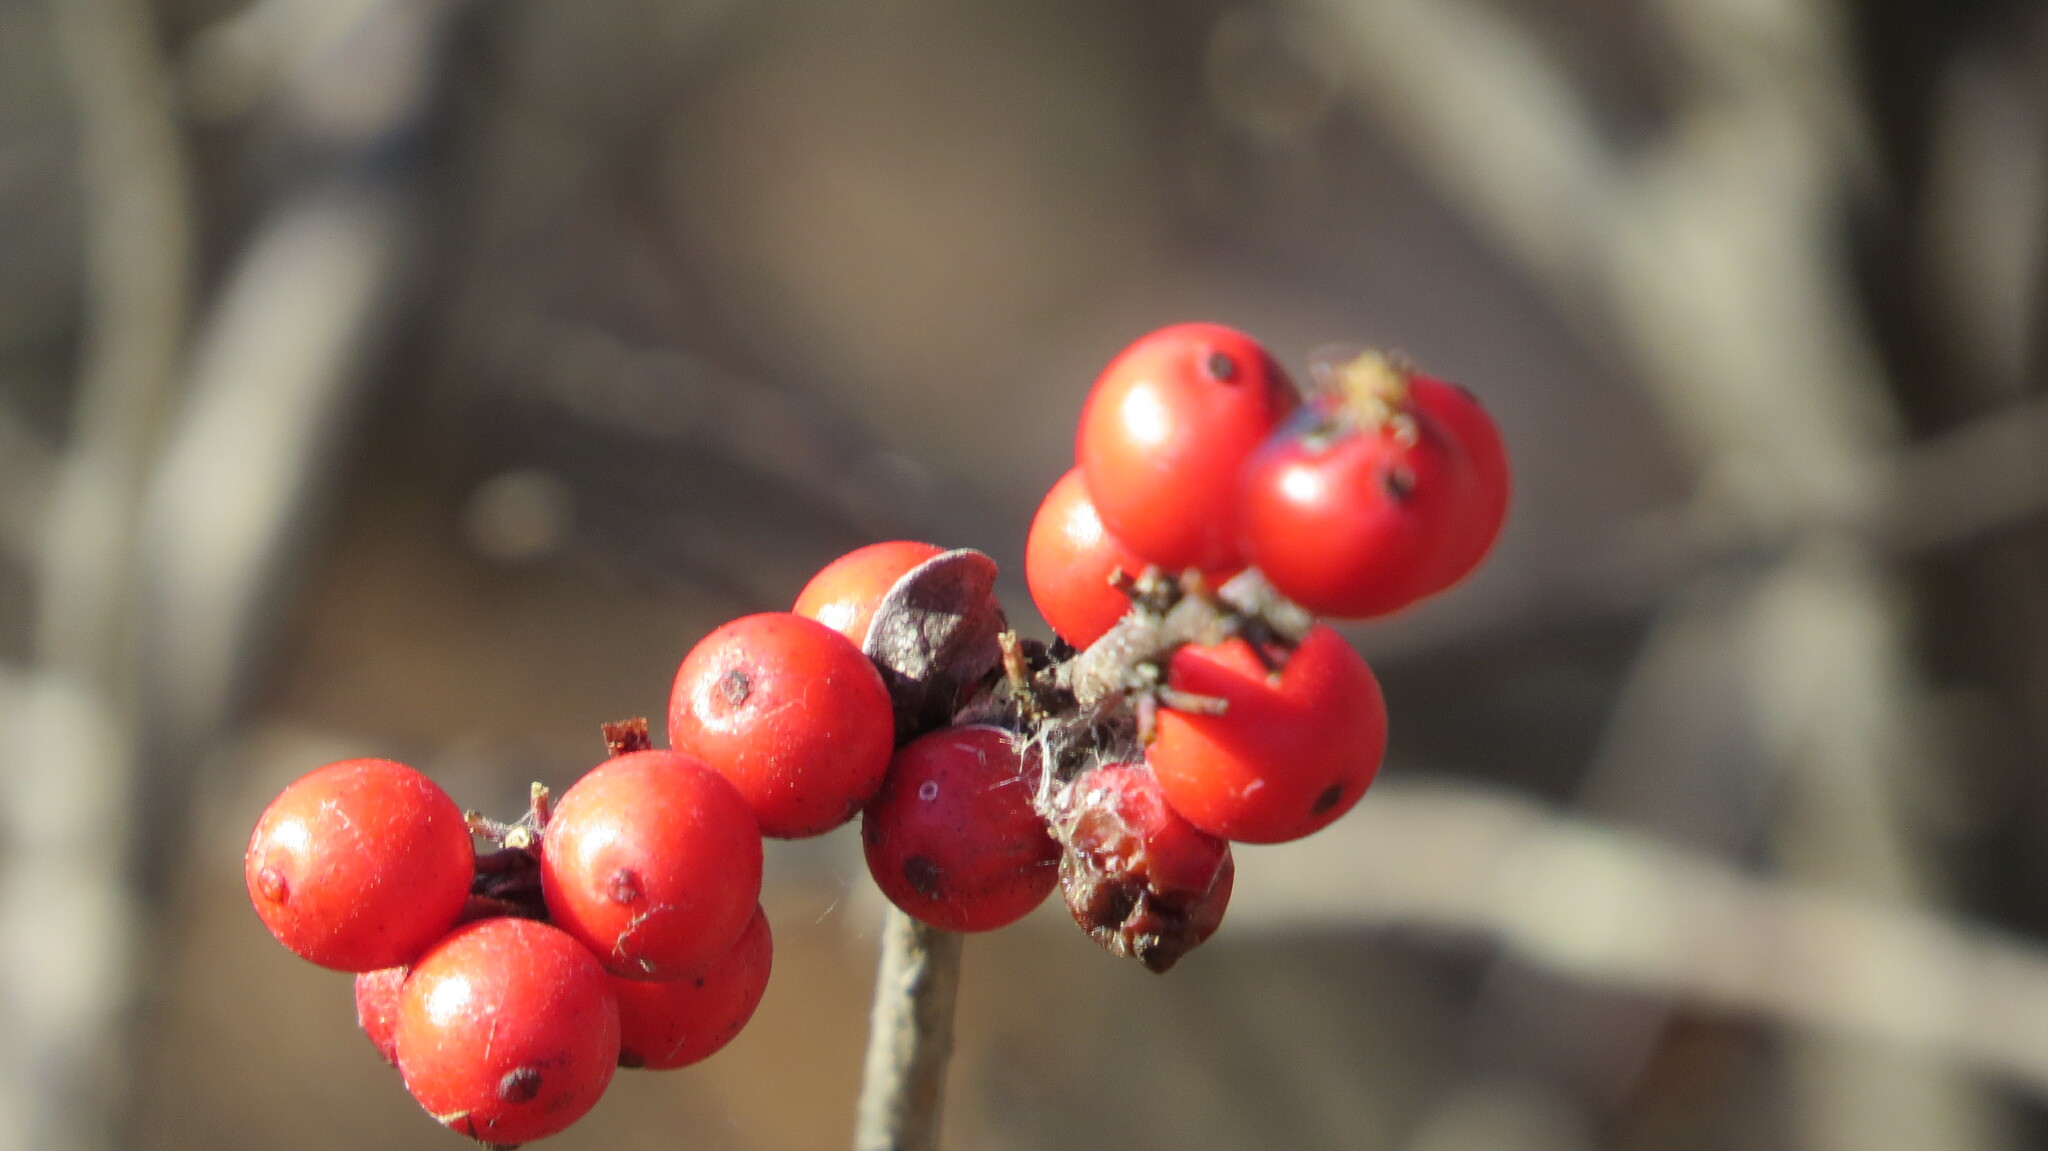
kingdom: Plantae
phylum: Tracheophyta
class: Magnoliopsida
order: Aquifoliales
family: Aquifoliaceae
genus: Ilex
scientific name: Ilex verticillata
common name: Virginia winterberry
